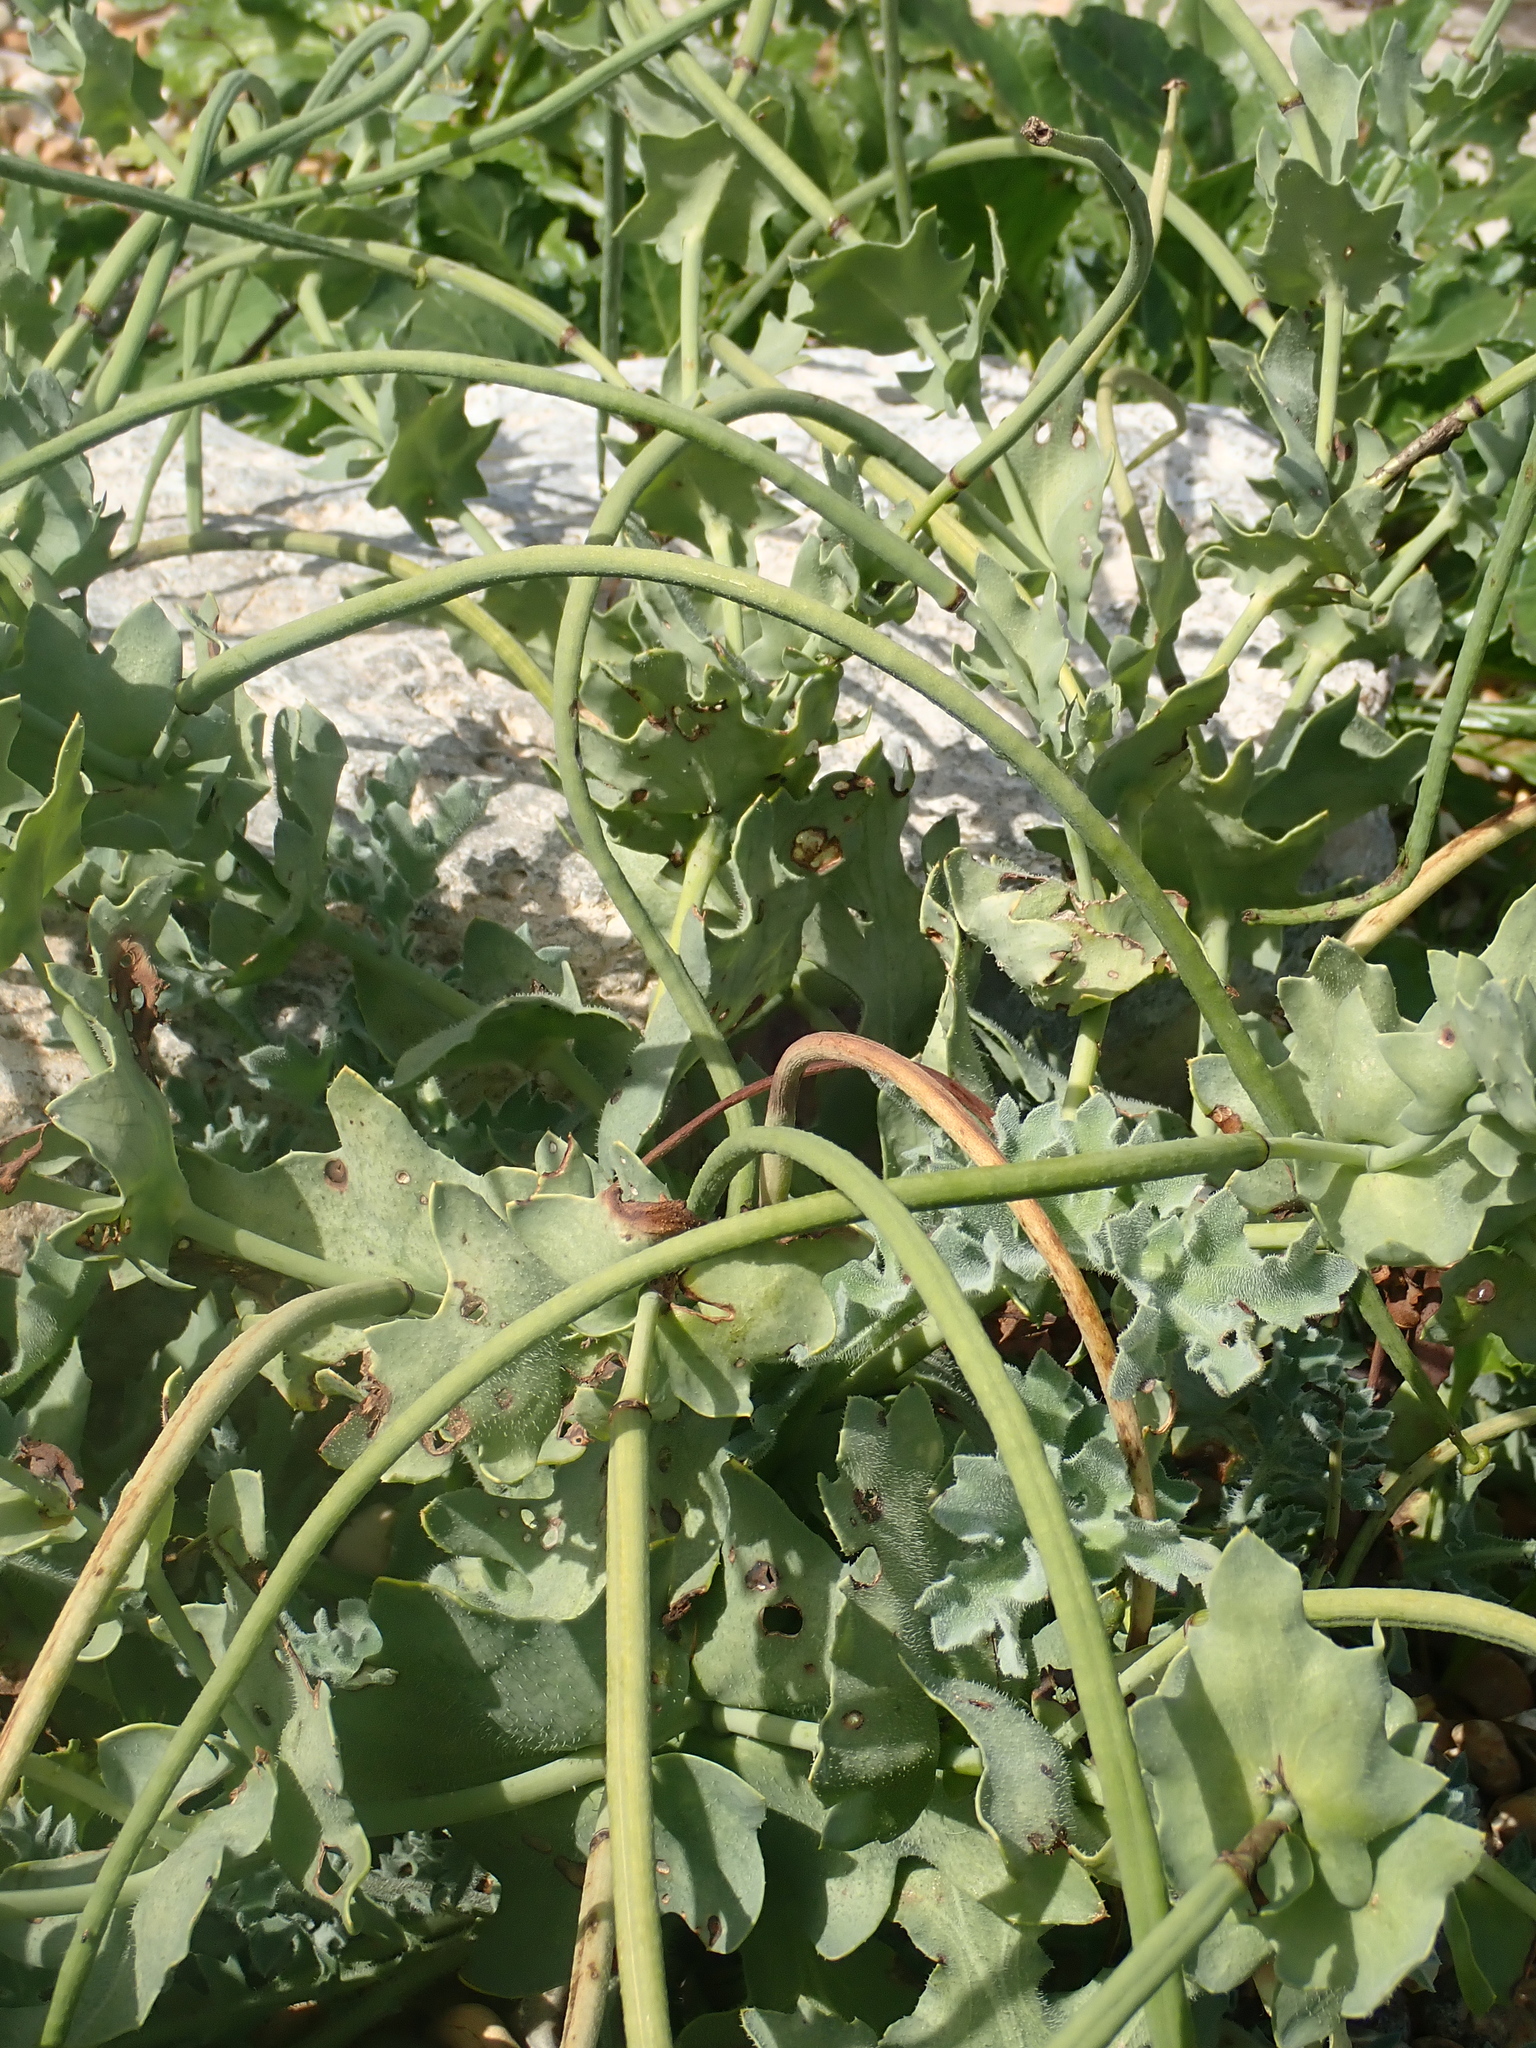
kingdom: Plantae
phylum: Tracheophyta
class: Magnoliopsida
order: Ranunculales
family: Papaveraceae
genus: Glaucium
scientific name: Glaucium flavum
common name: Yellow horned-poppy
